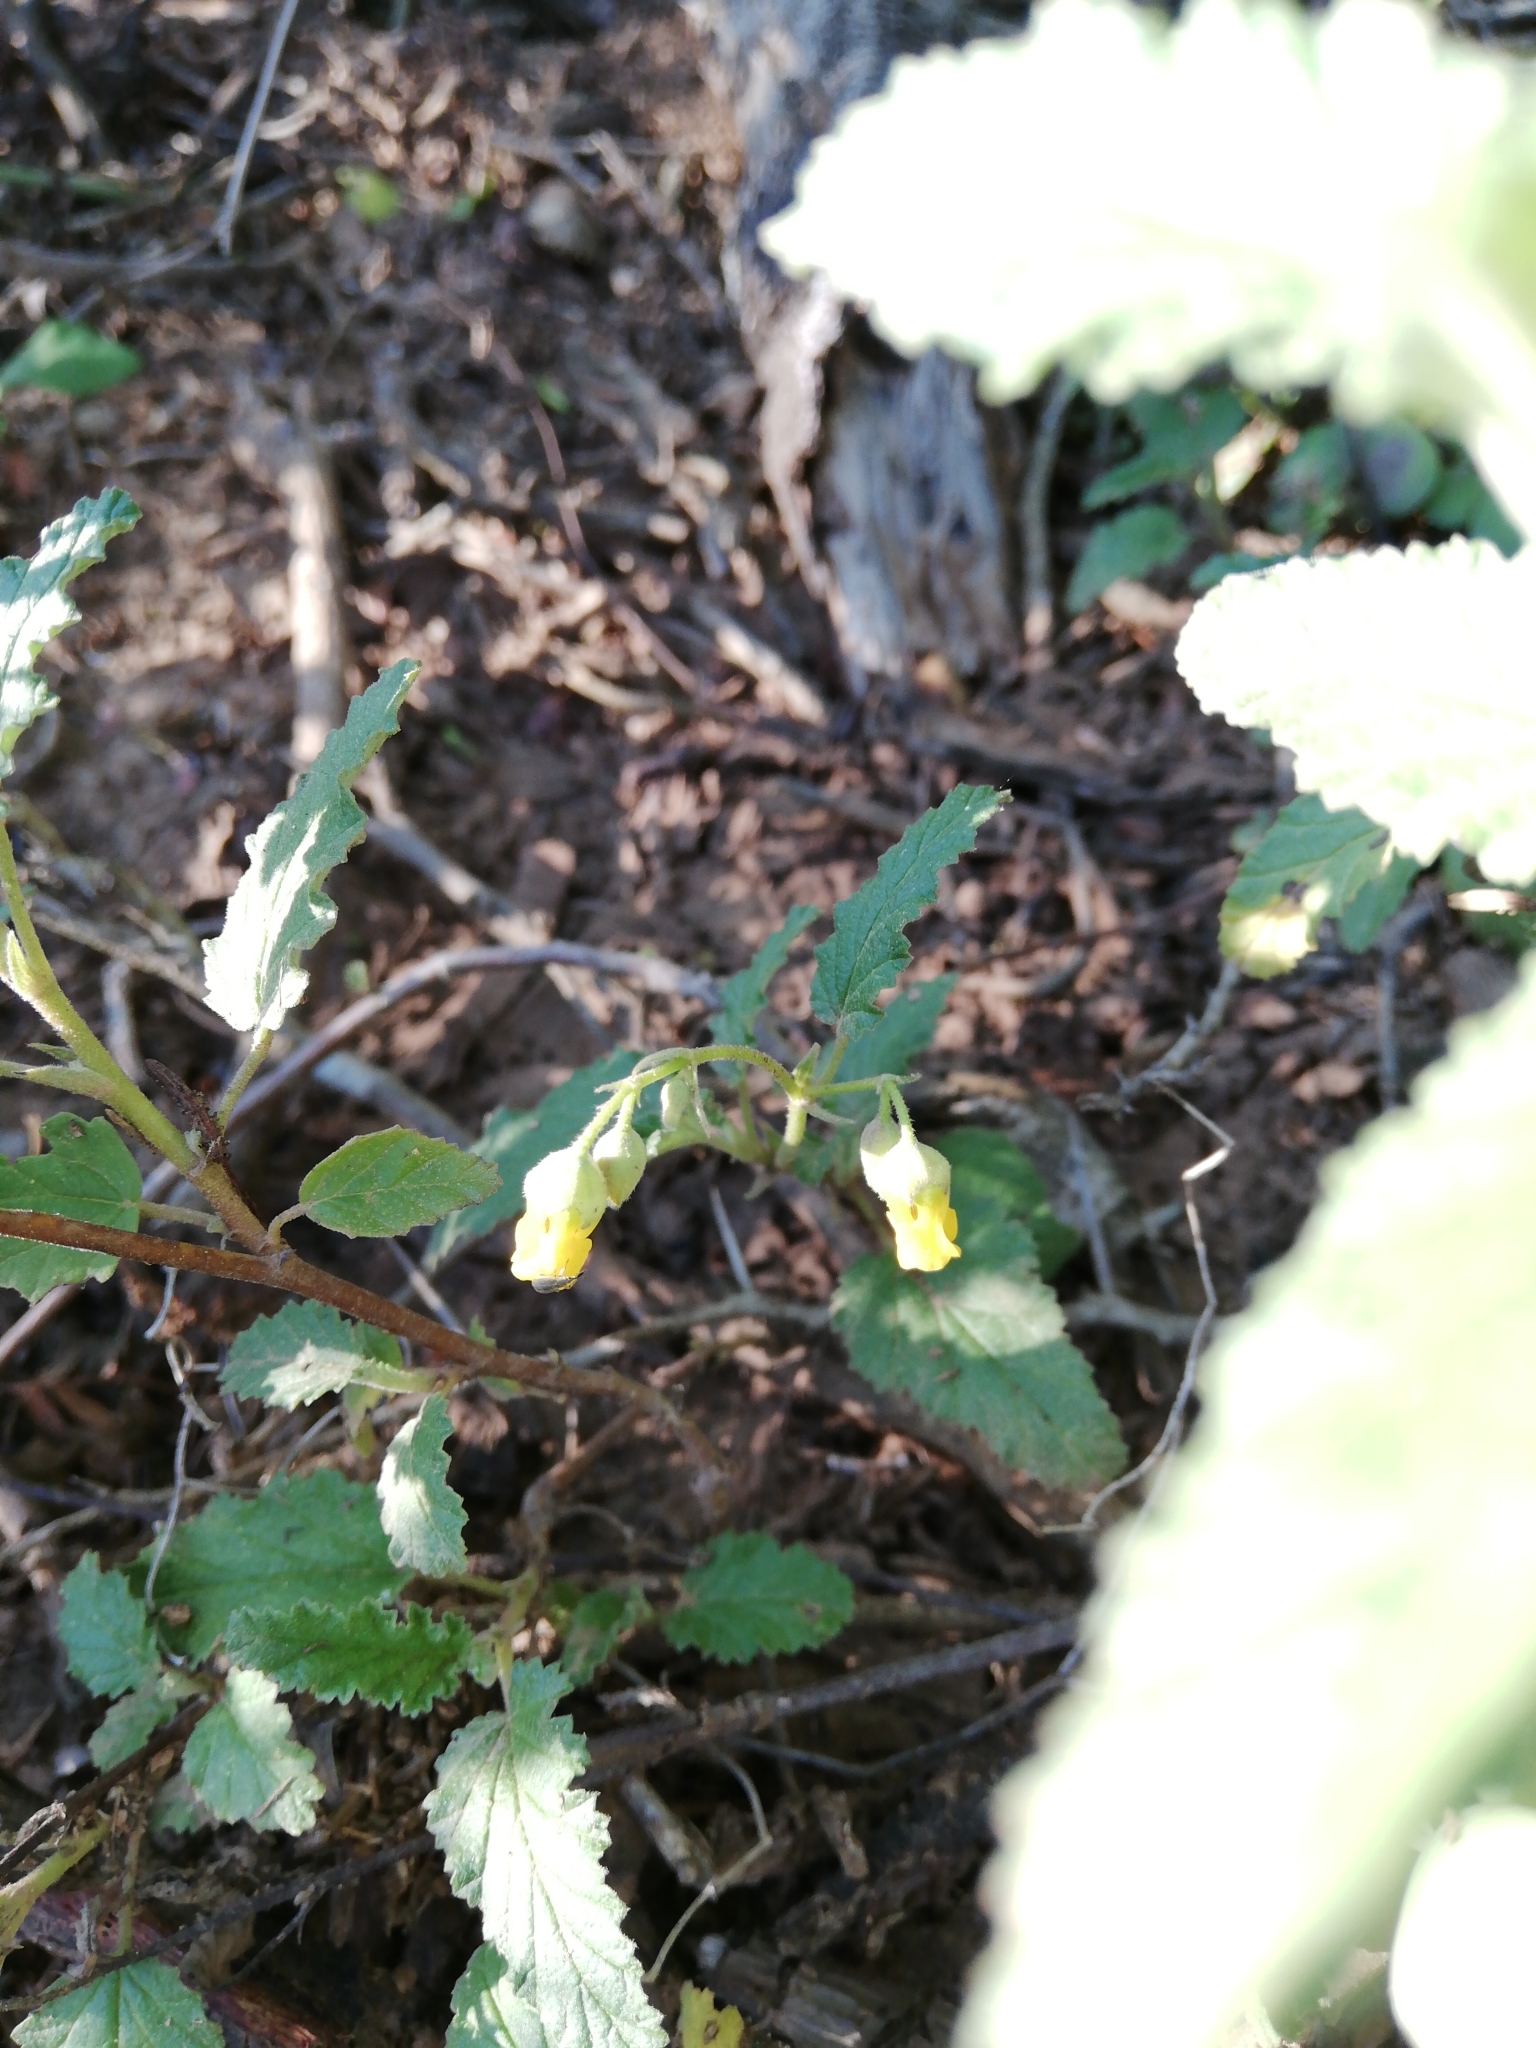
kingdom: Plantae
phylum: Tracheophyta
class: Magnoliopsida
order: Malvales
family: Malvaceae
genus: Hermannia
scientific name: Hermannia althaeoides
